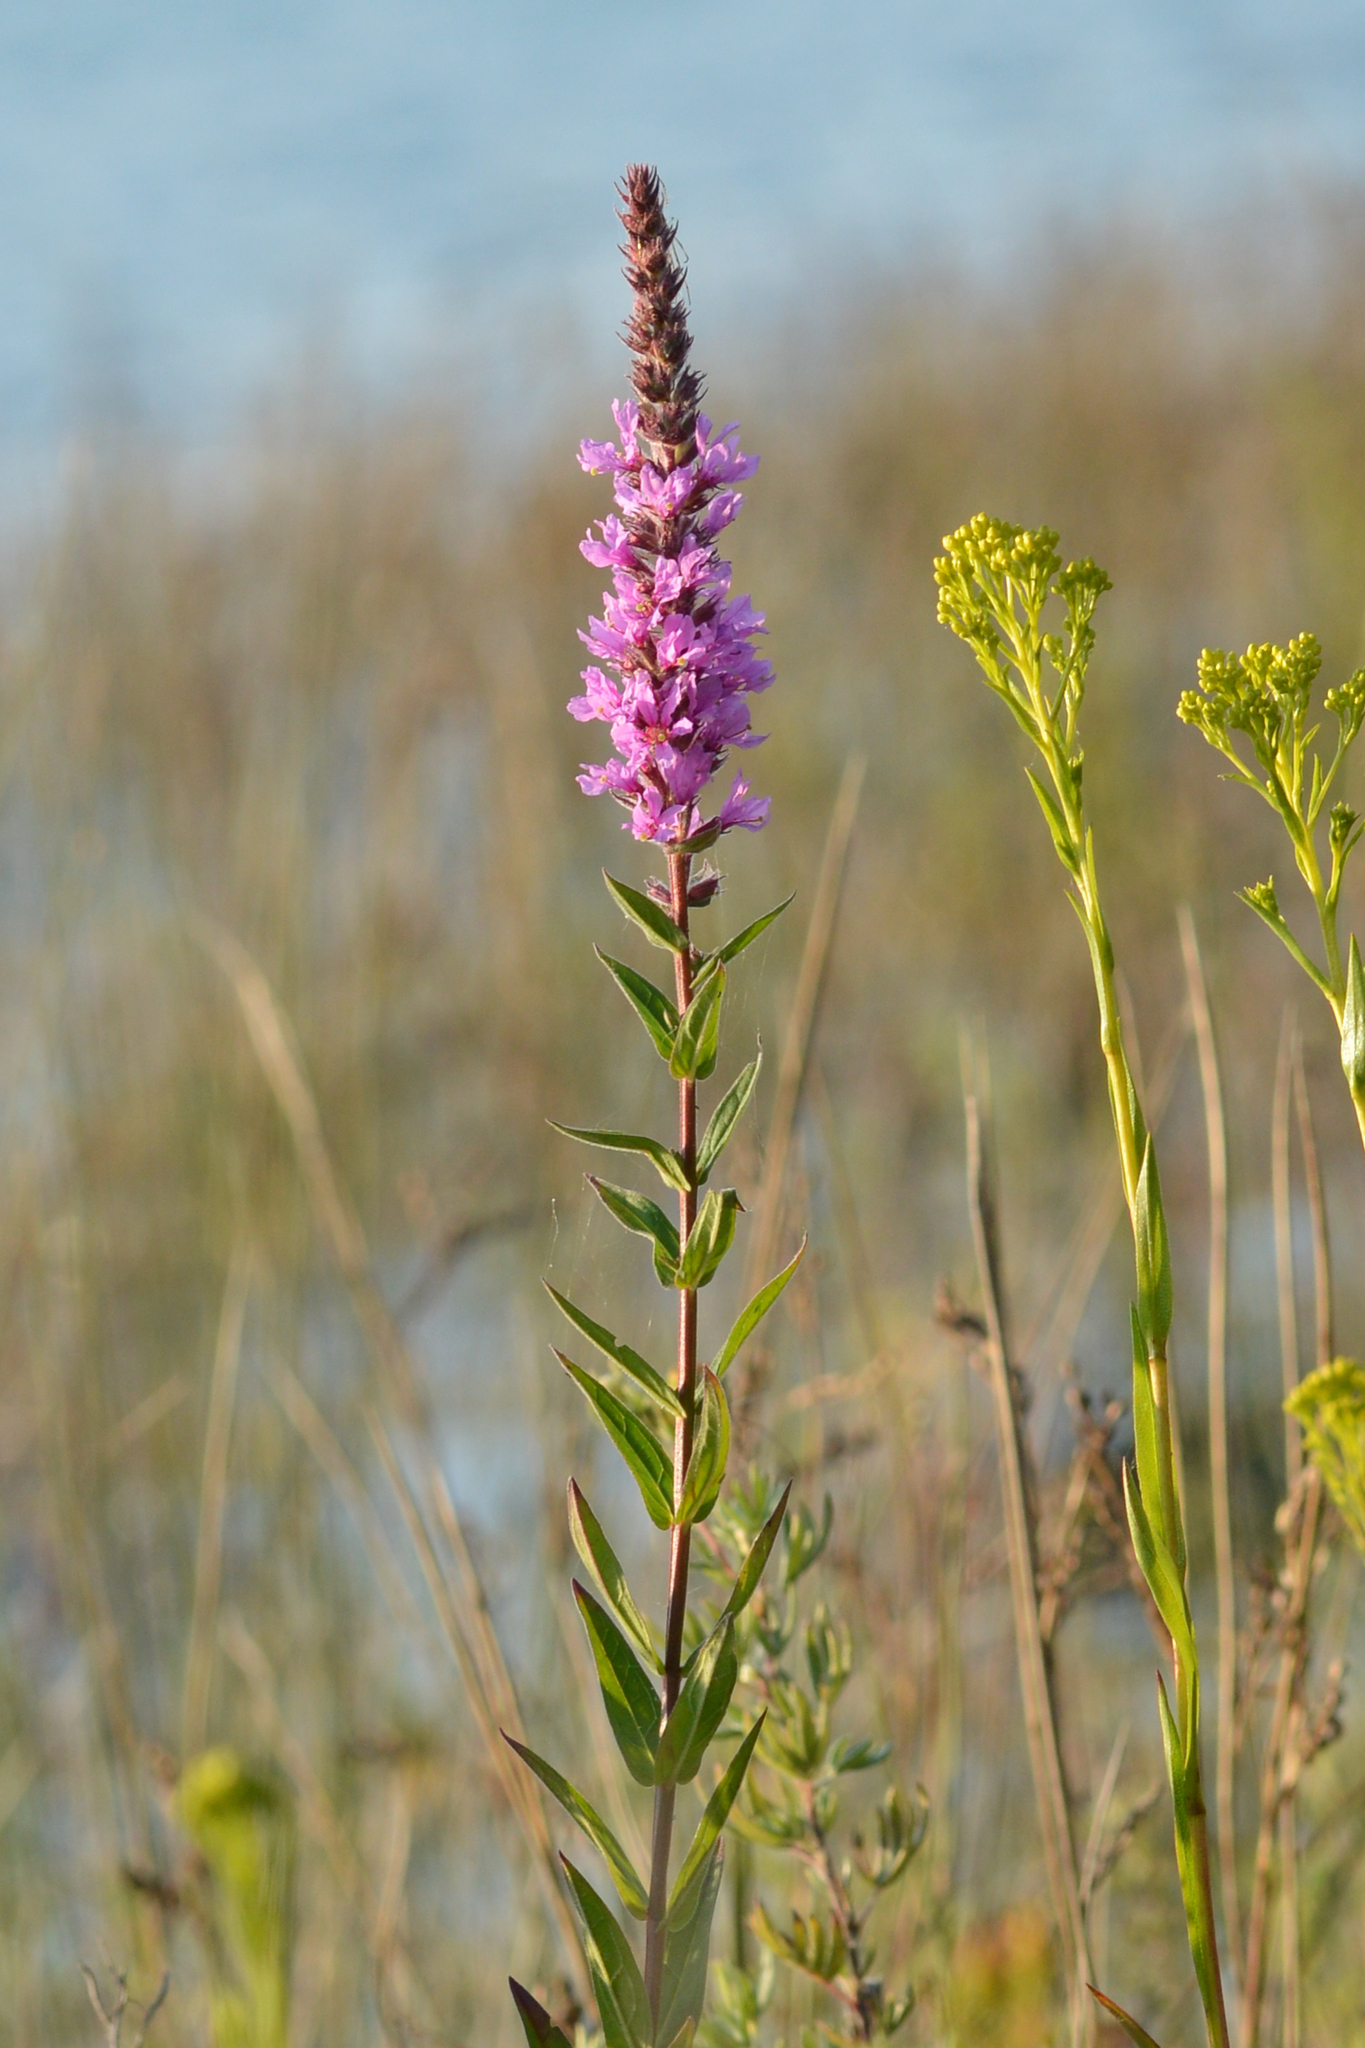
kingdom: Plantae
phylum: Tracheophyta
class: Magnoliopsida
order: Myrtales
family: Lythraceae
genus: Lythrum
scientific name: Lythrum salicaria
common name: Purple loosestrife
